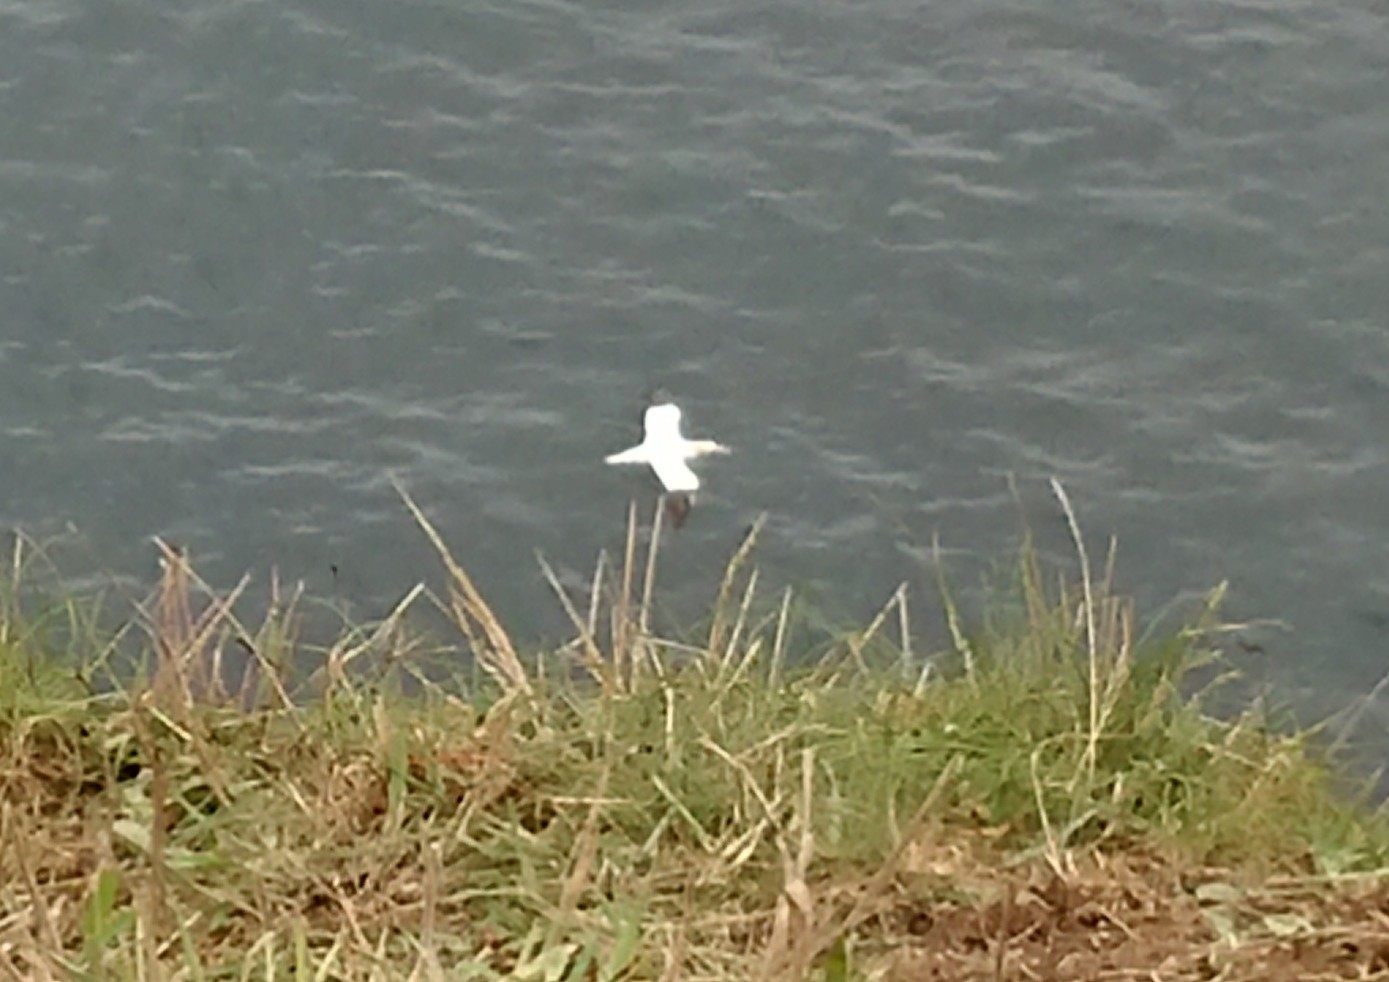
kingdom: Animalia
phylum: Chordata
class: Aves
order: Suliformes
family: Sulidae
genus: Morus
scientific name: Morus bassanus
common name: Northern gannet
